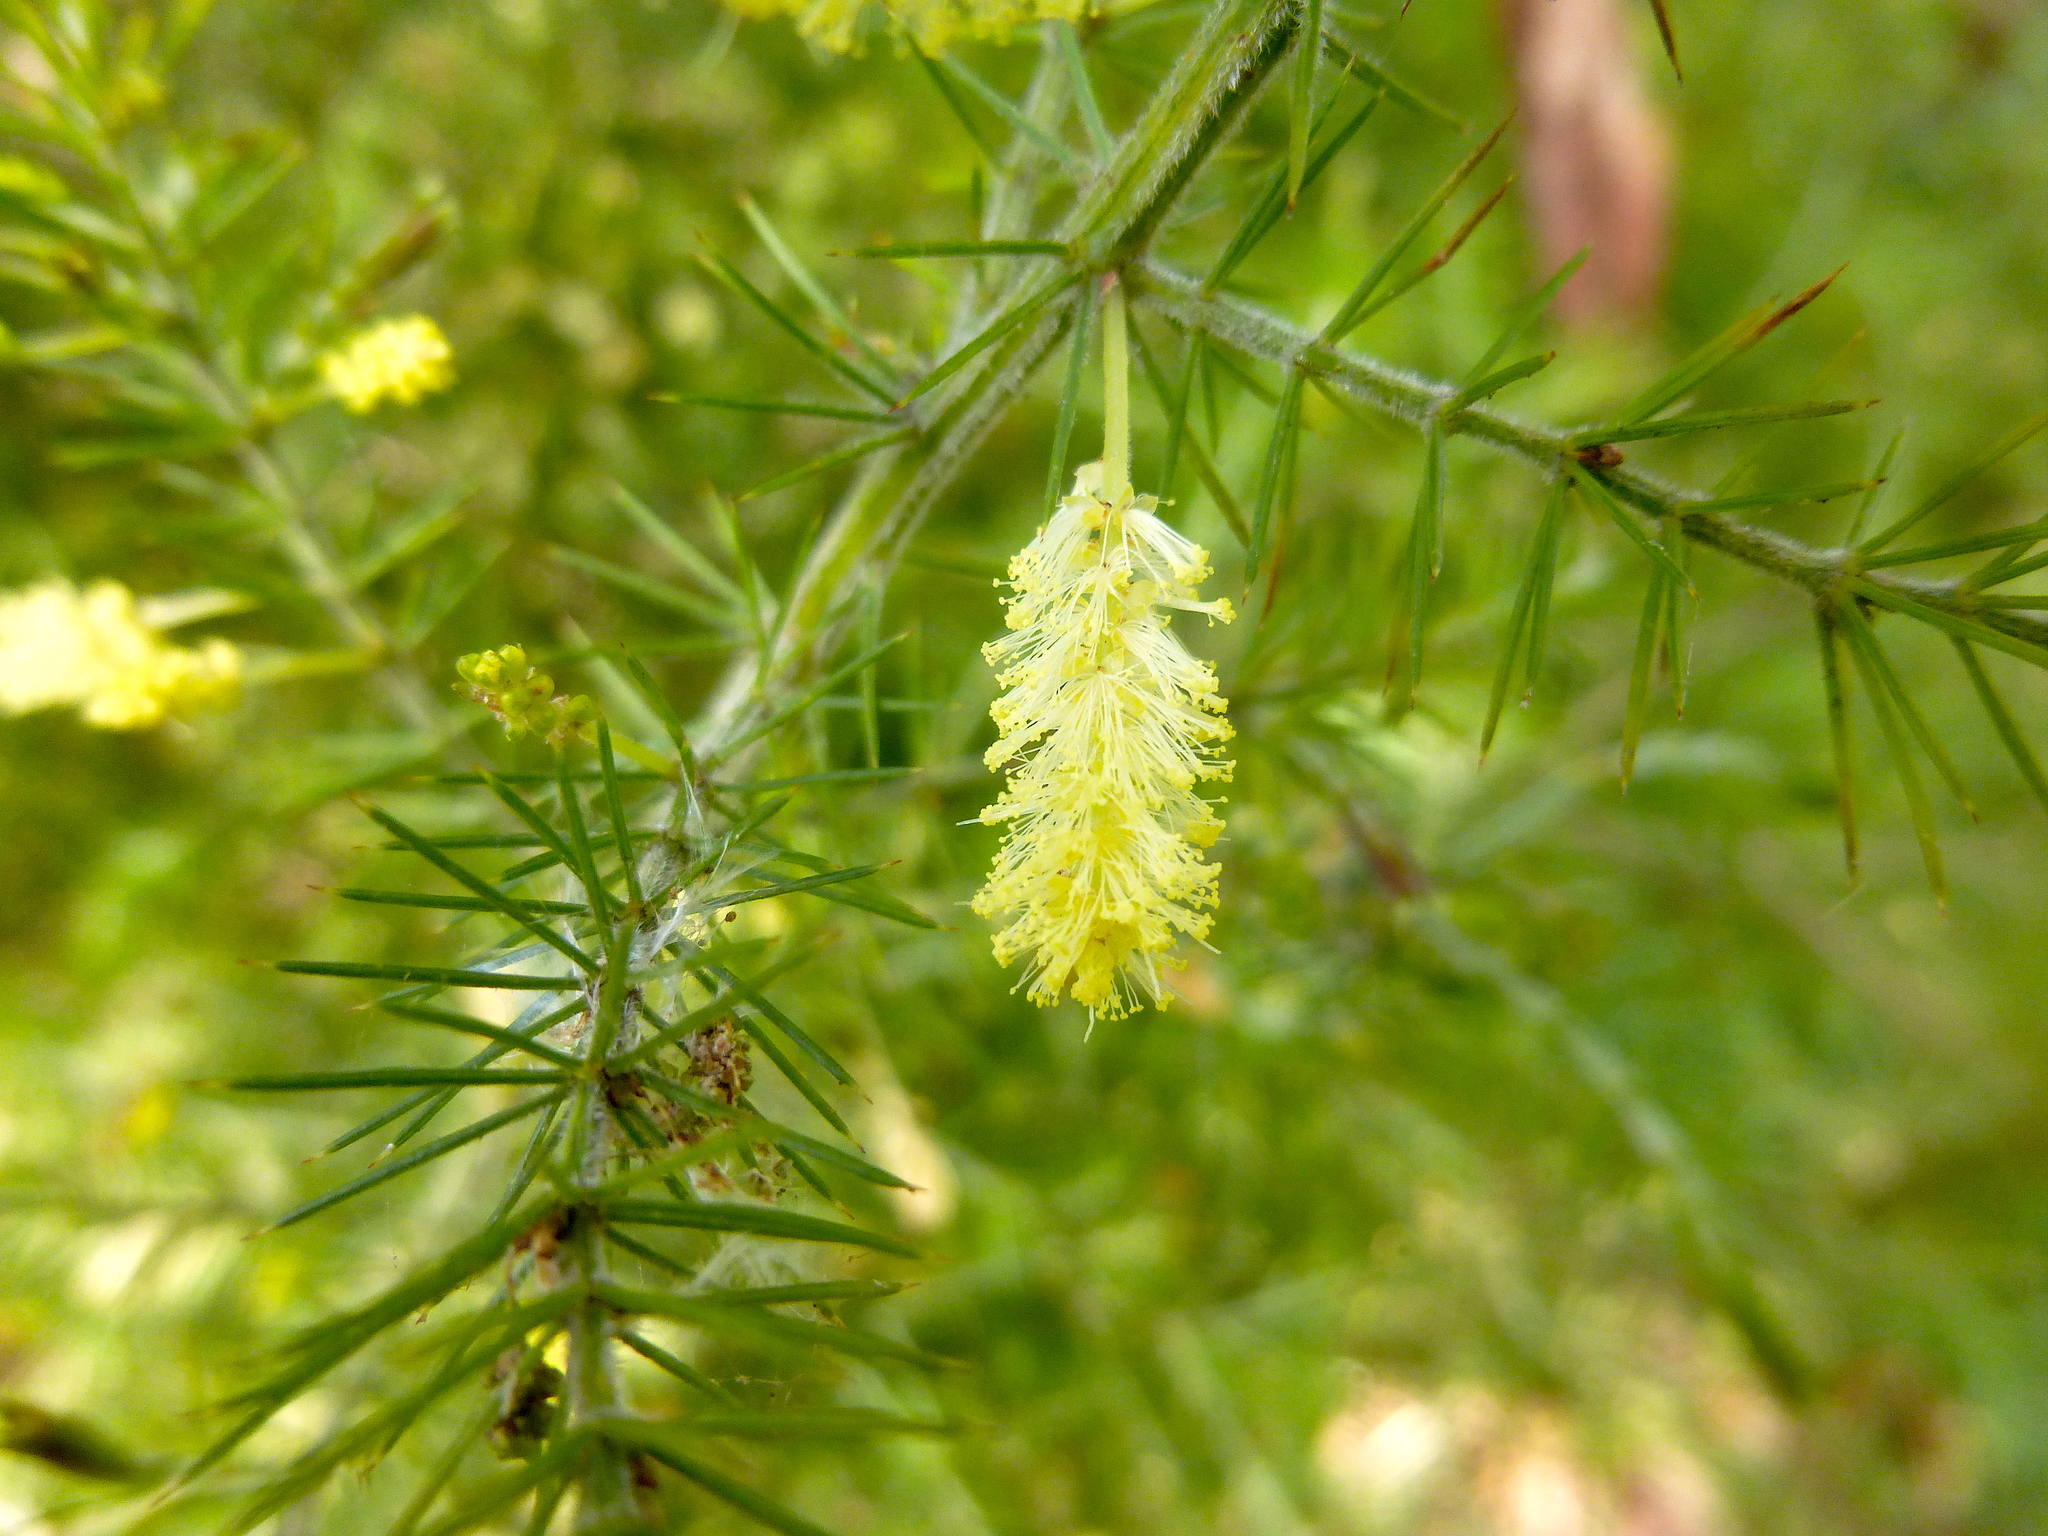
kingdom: Plantae
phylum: Tracheophyta
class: Magnoliopsida
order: Fabales
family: Fabaceae
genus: Acacia
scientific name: Acacia verticillata
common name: Prickly moses
